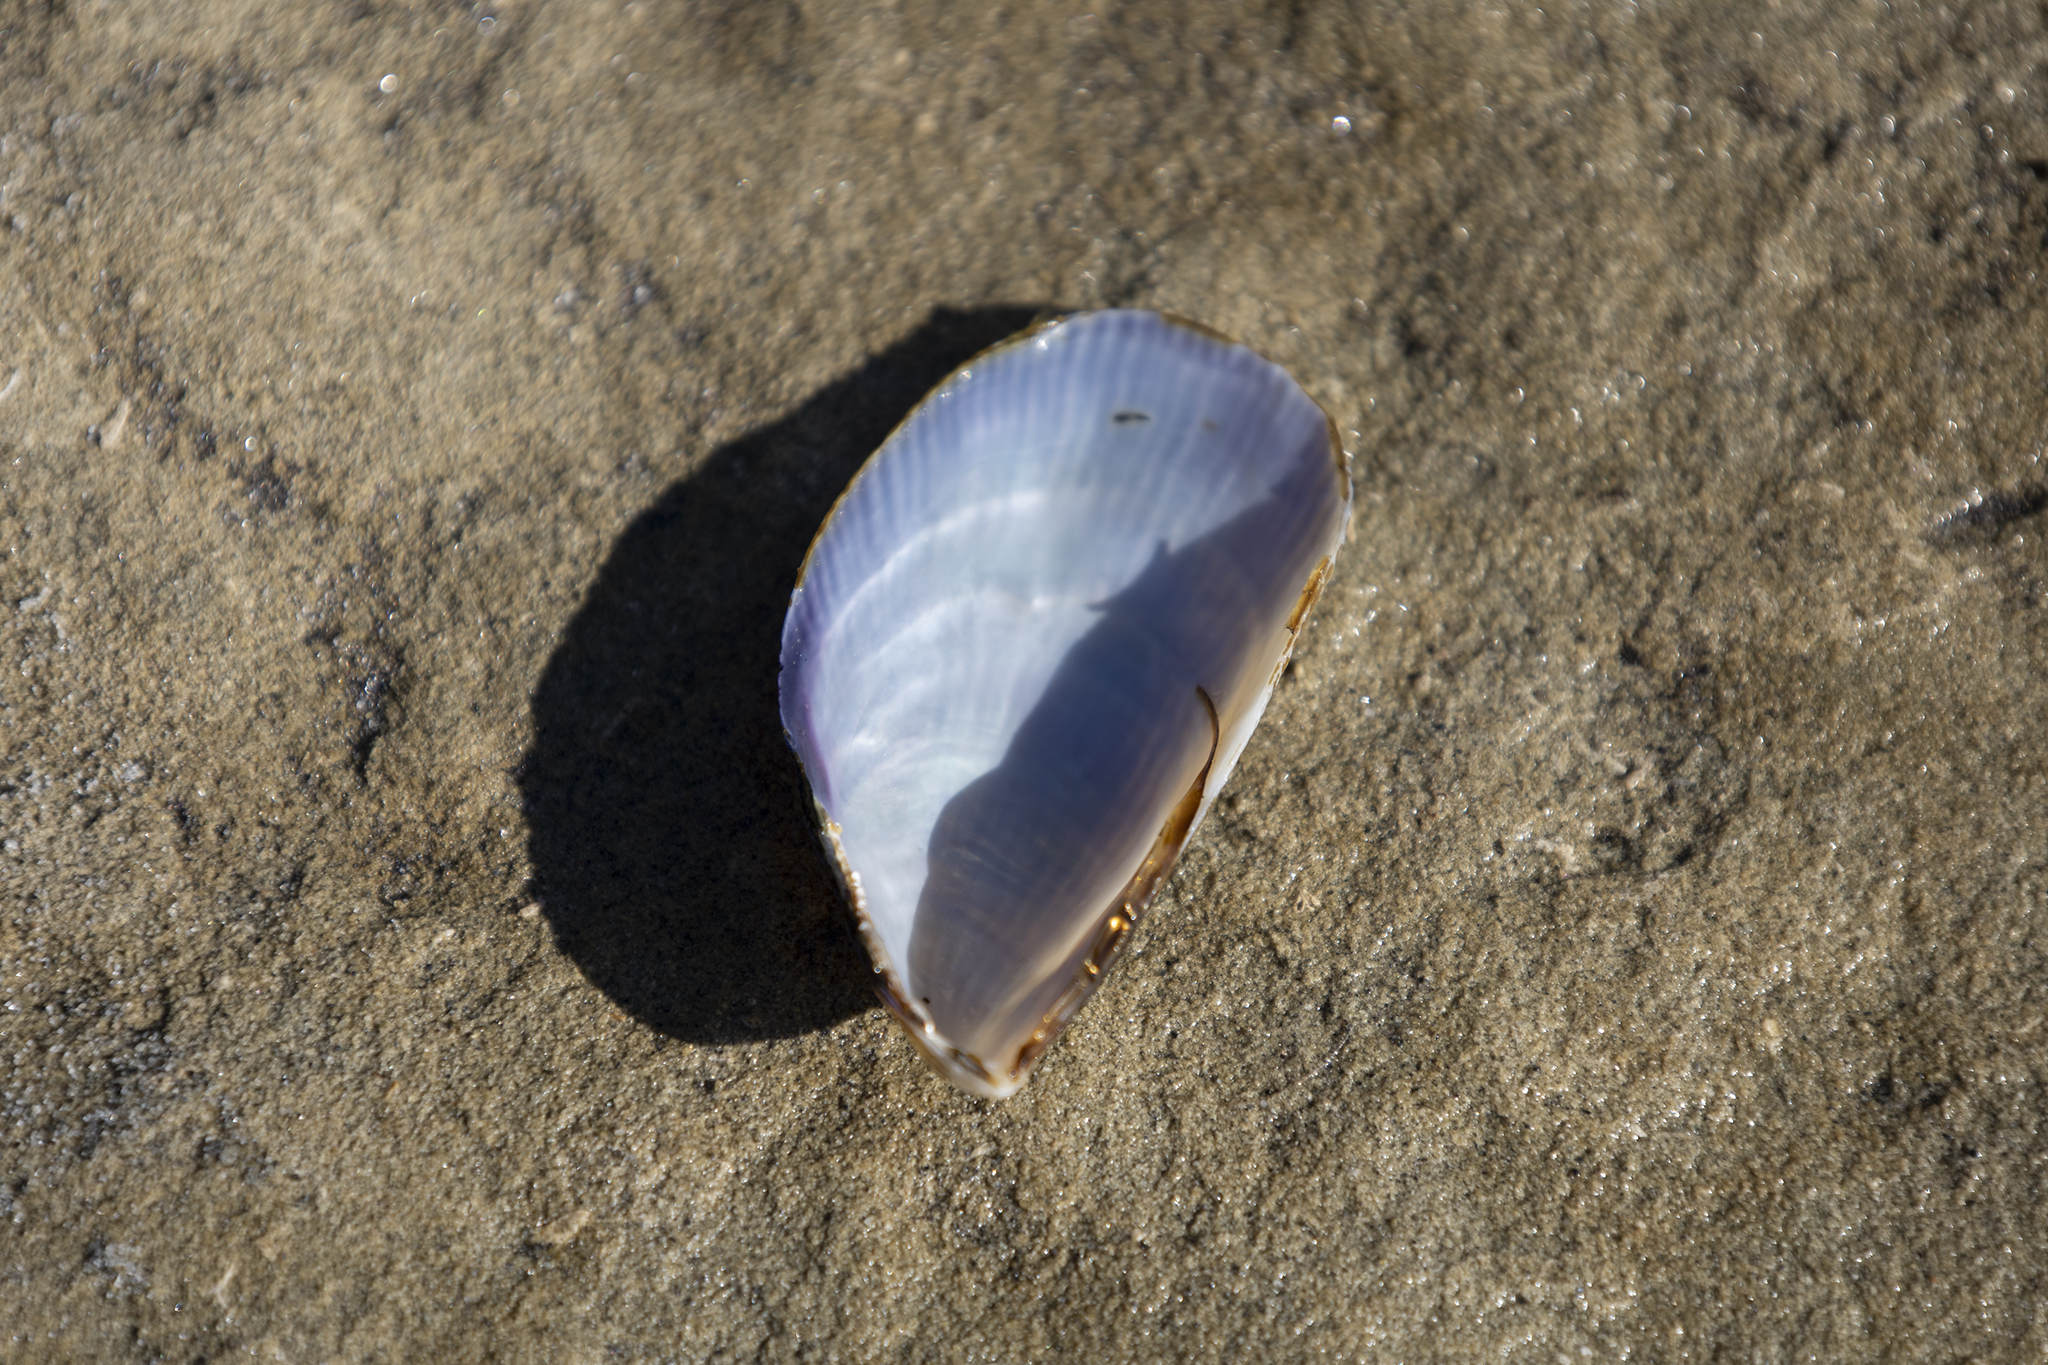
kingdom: Animalia
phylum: Mollusca
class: Bivalvia
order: Mytilida
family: Mytilidae
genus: Aulacomya
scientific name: Aulacomya maoriana
